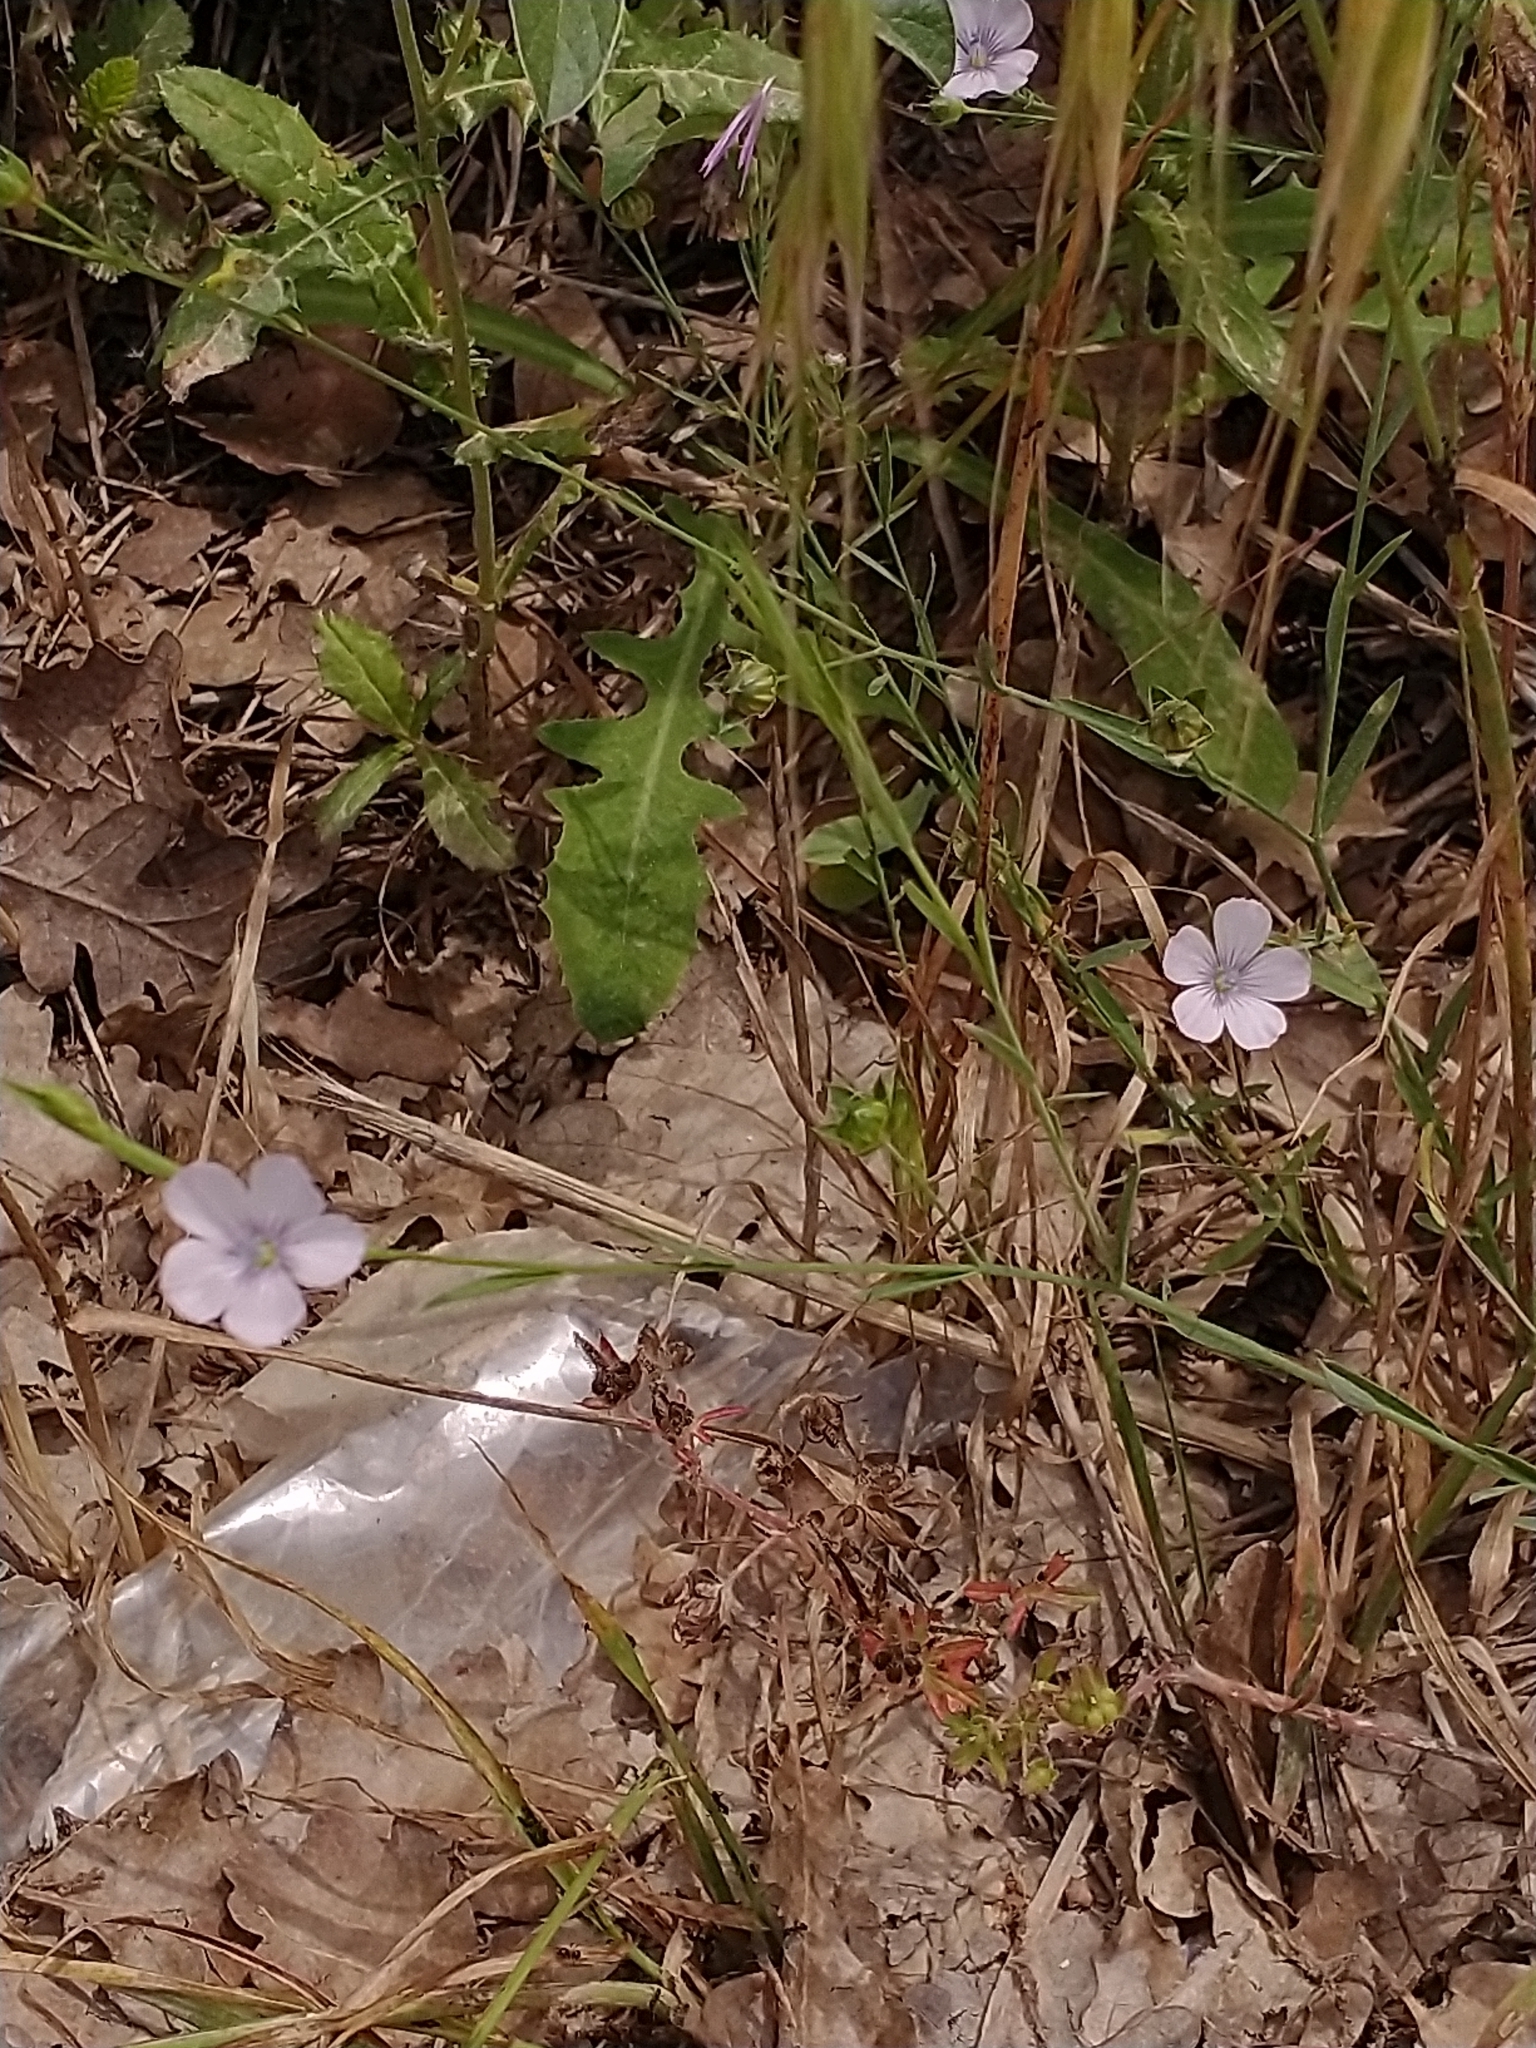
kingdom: Plantae
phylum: Tracheophyta
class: Magnoliopsida
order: Malpighiales
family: Linaceae
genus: Linum
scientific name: Linum bienne
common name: Pale flax
